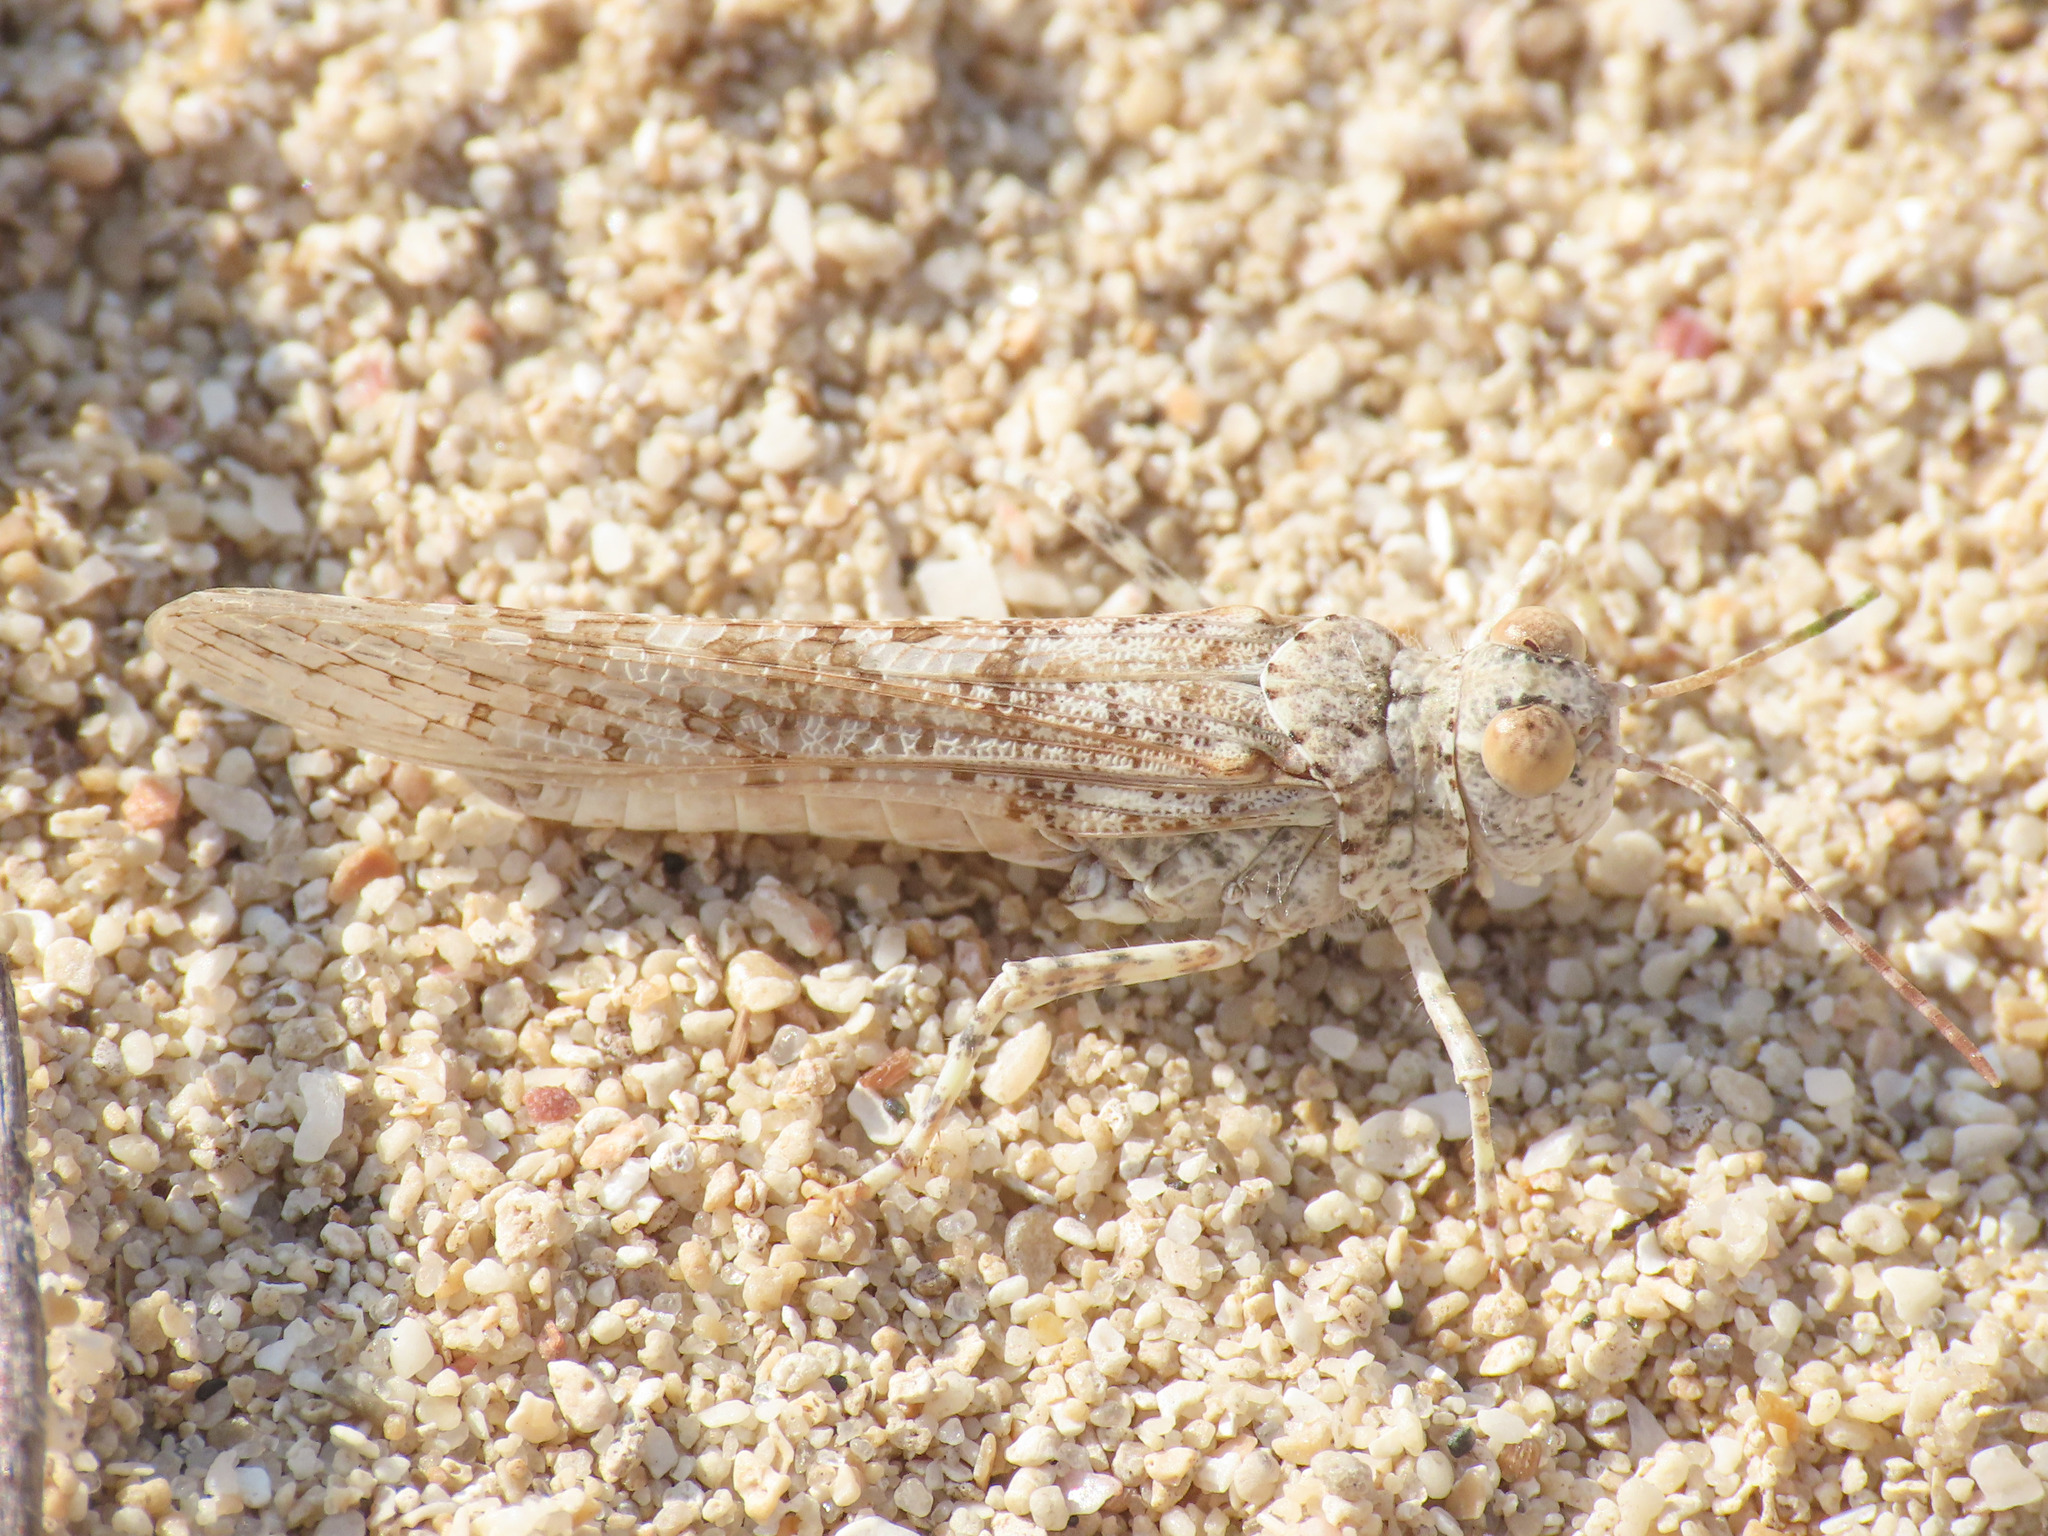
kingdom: Animalia
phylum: Arthropoda
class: Insecta
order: Orthoptera
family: Acrididae
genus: Sphingonotus
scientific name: Sphingonotus personatus
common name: Italian sand grasshopper
